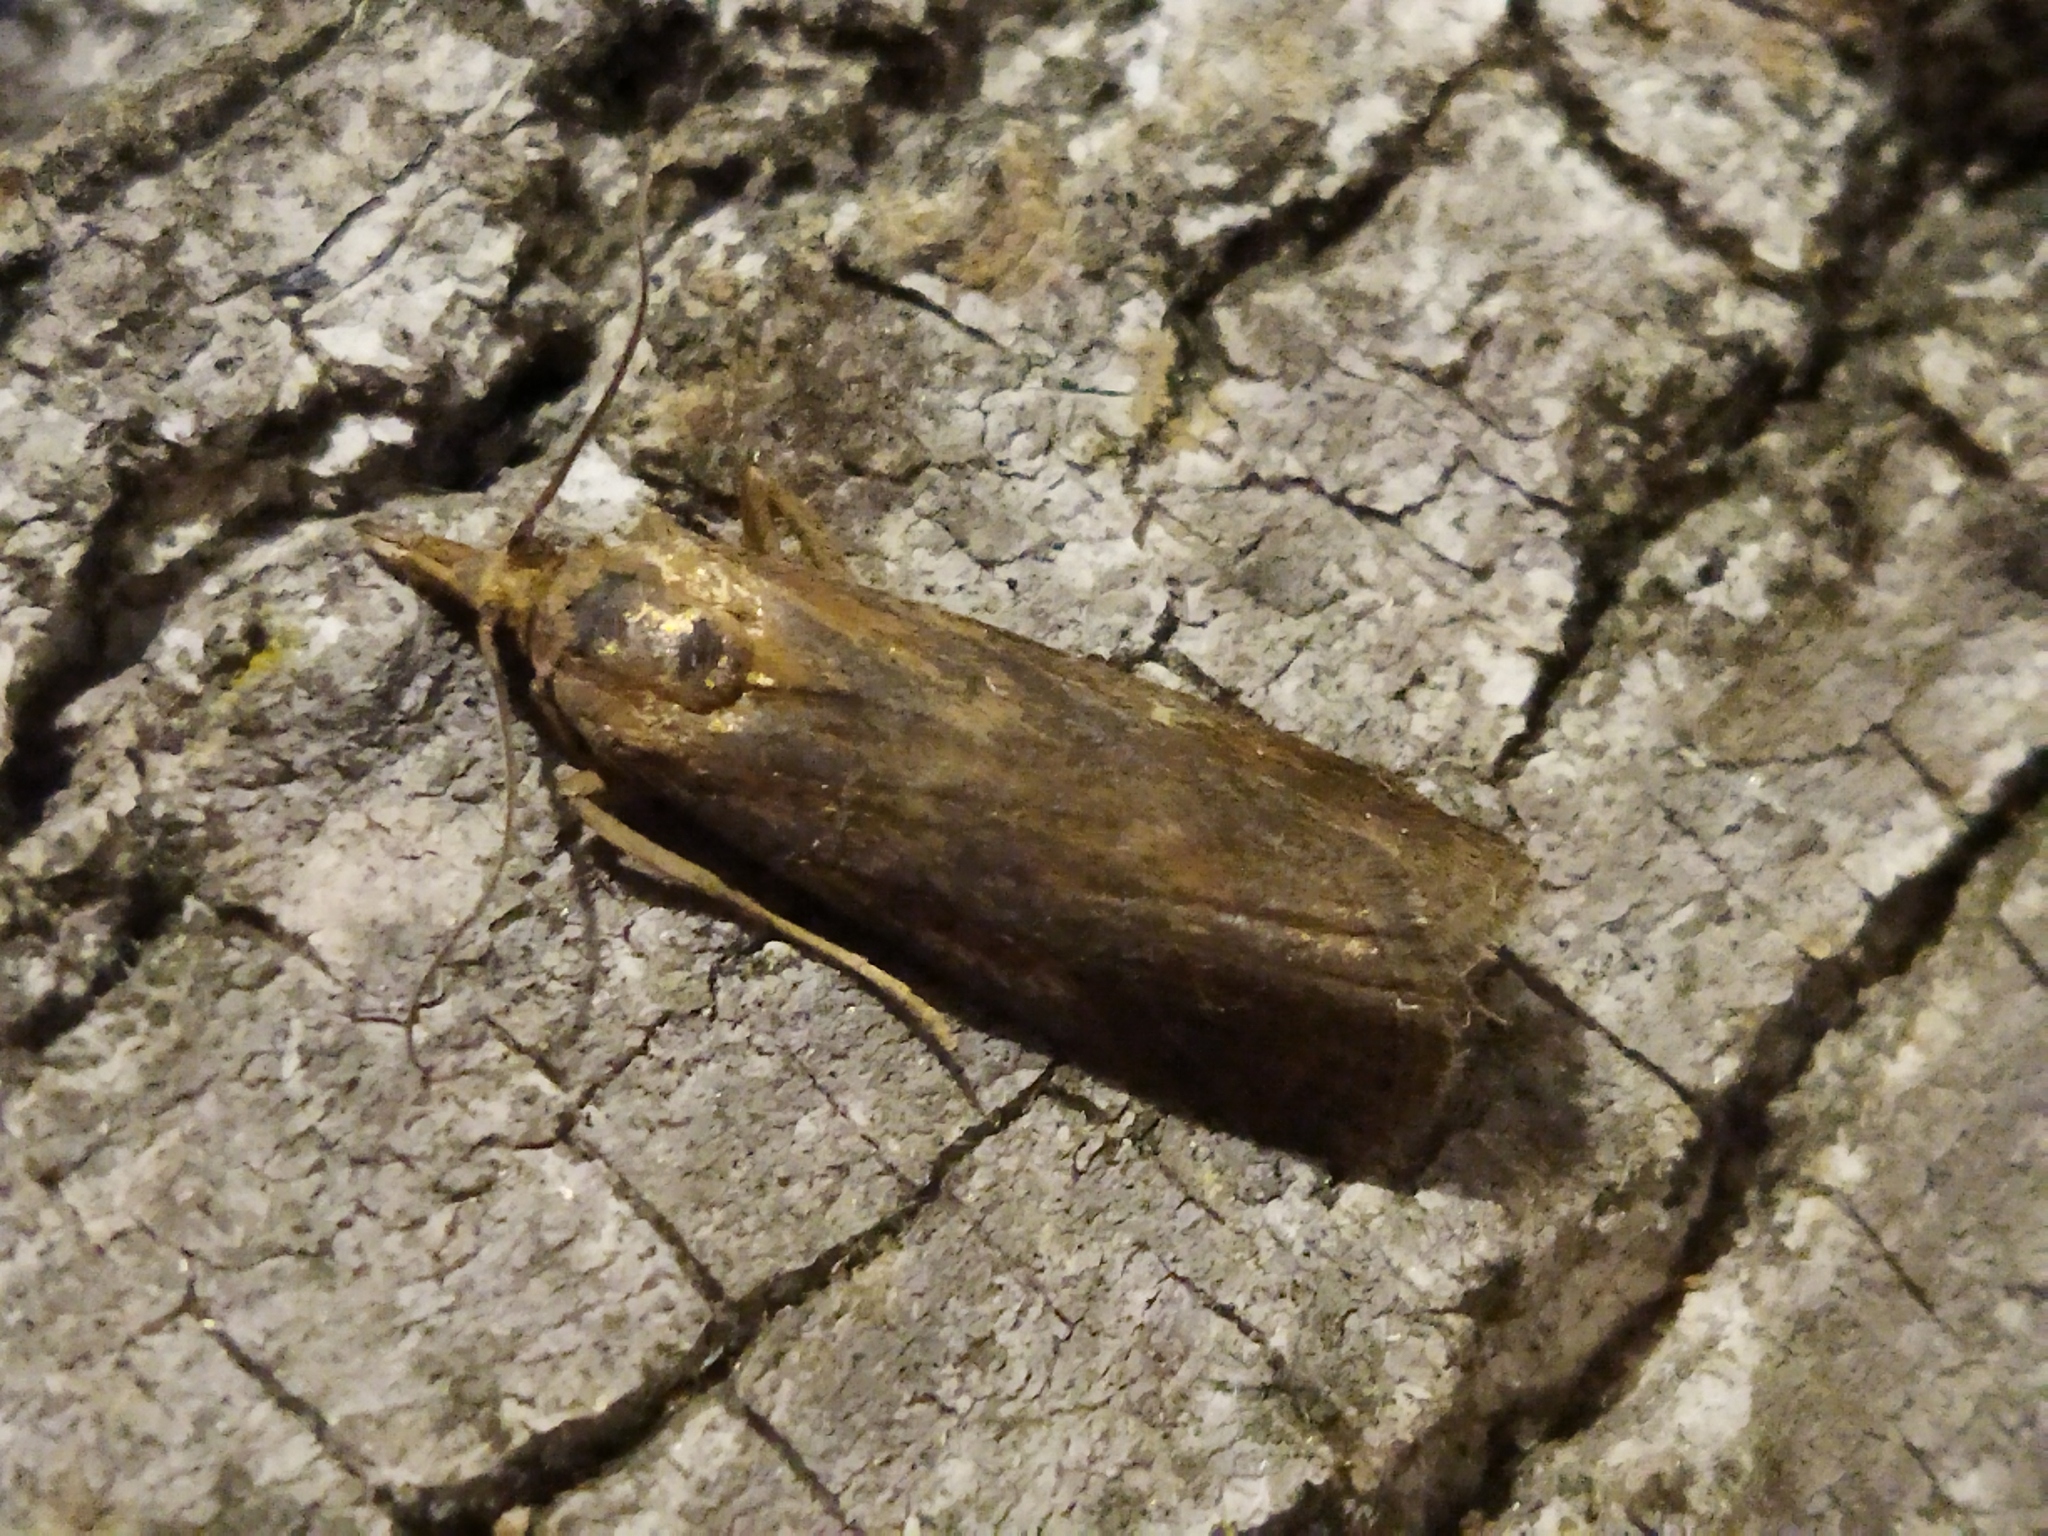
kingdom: Animalia
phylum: Arthropoda
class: Insecta
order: Lepidoptera
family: Pyralidae
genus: Hypochalcia
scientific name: Hypochalcia
